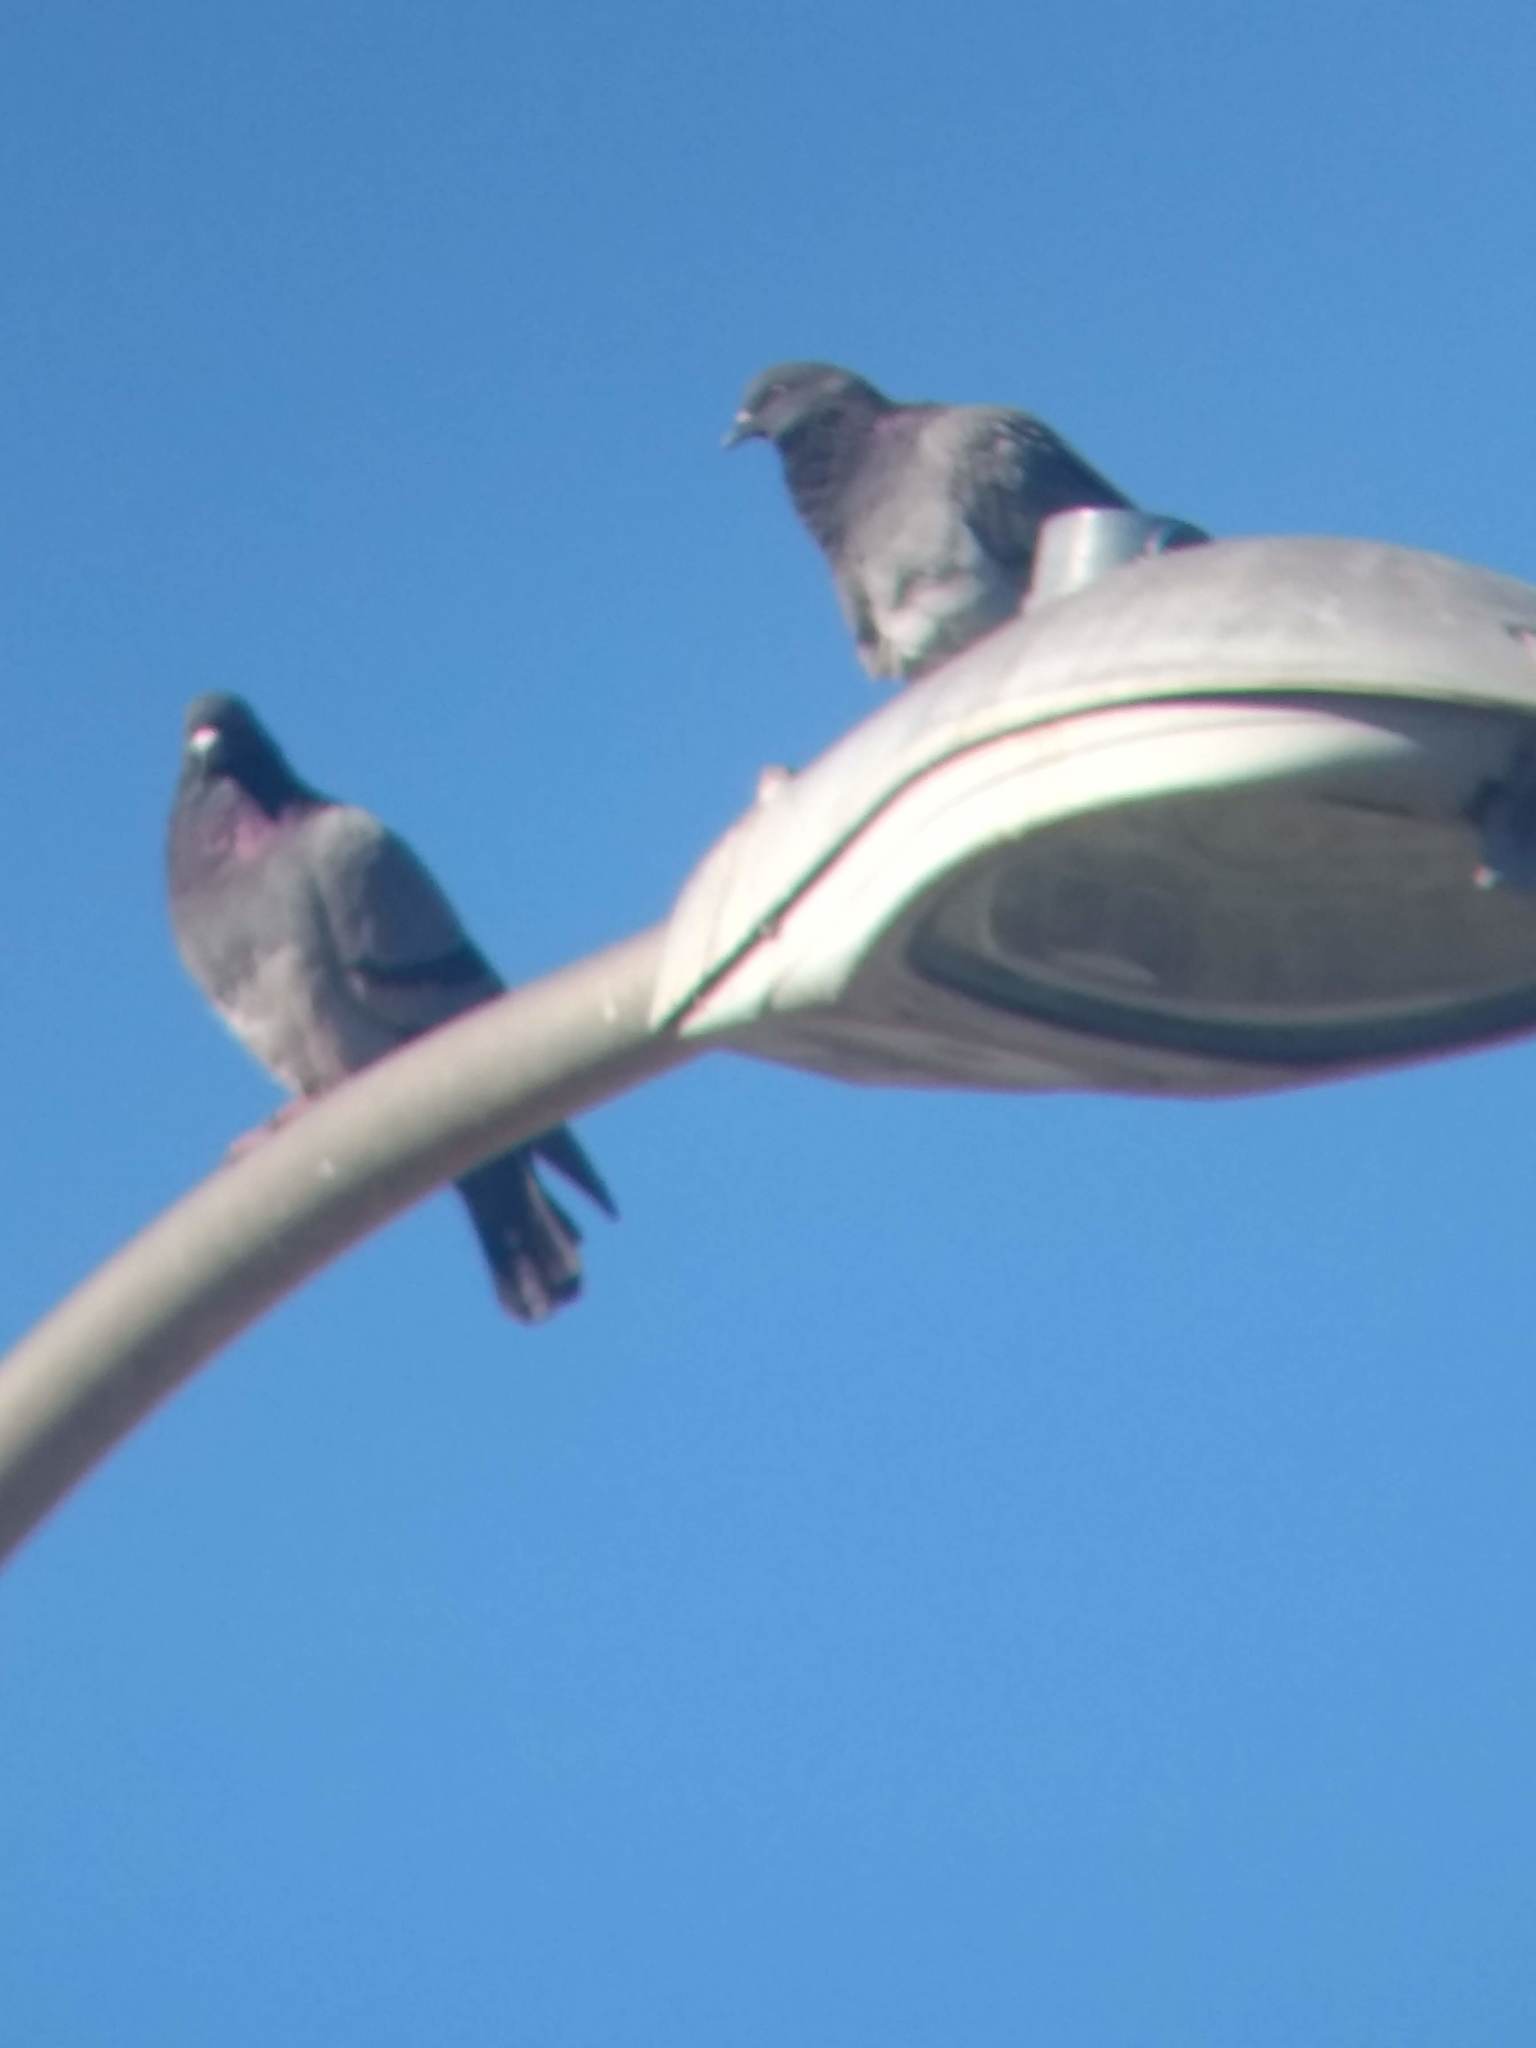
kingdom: Animalia
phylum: Chordata
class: Aves
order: Columbiformes
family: Columbidae
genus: Columba
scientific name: Columba livia
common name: Rock pigeon
